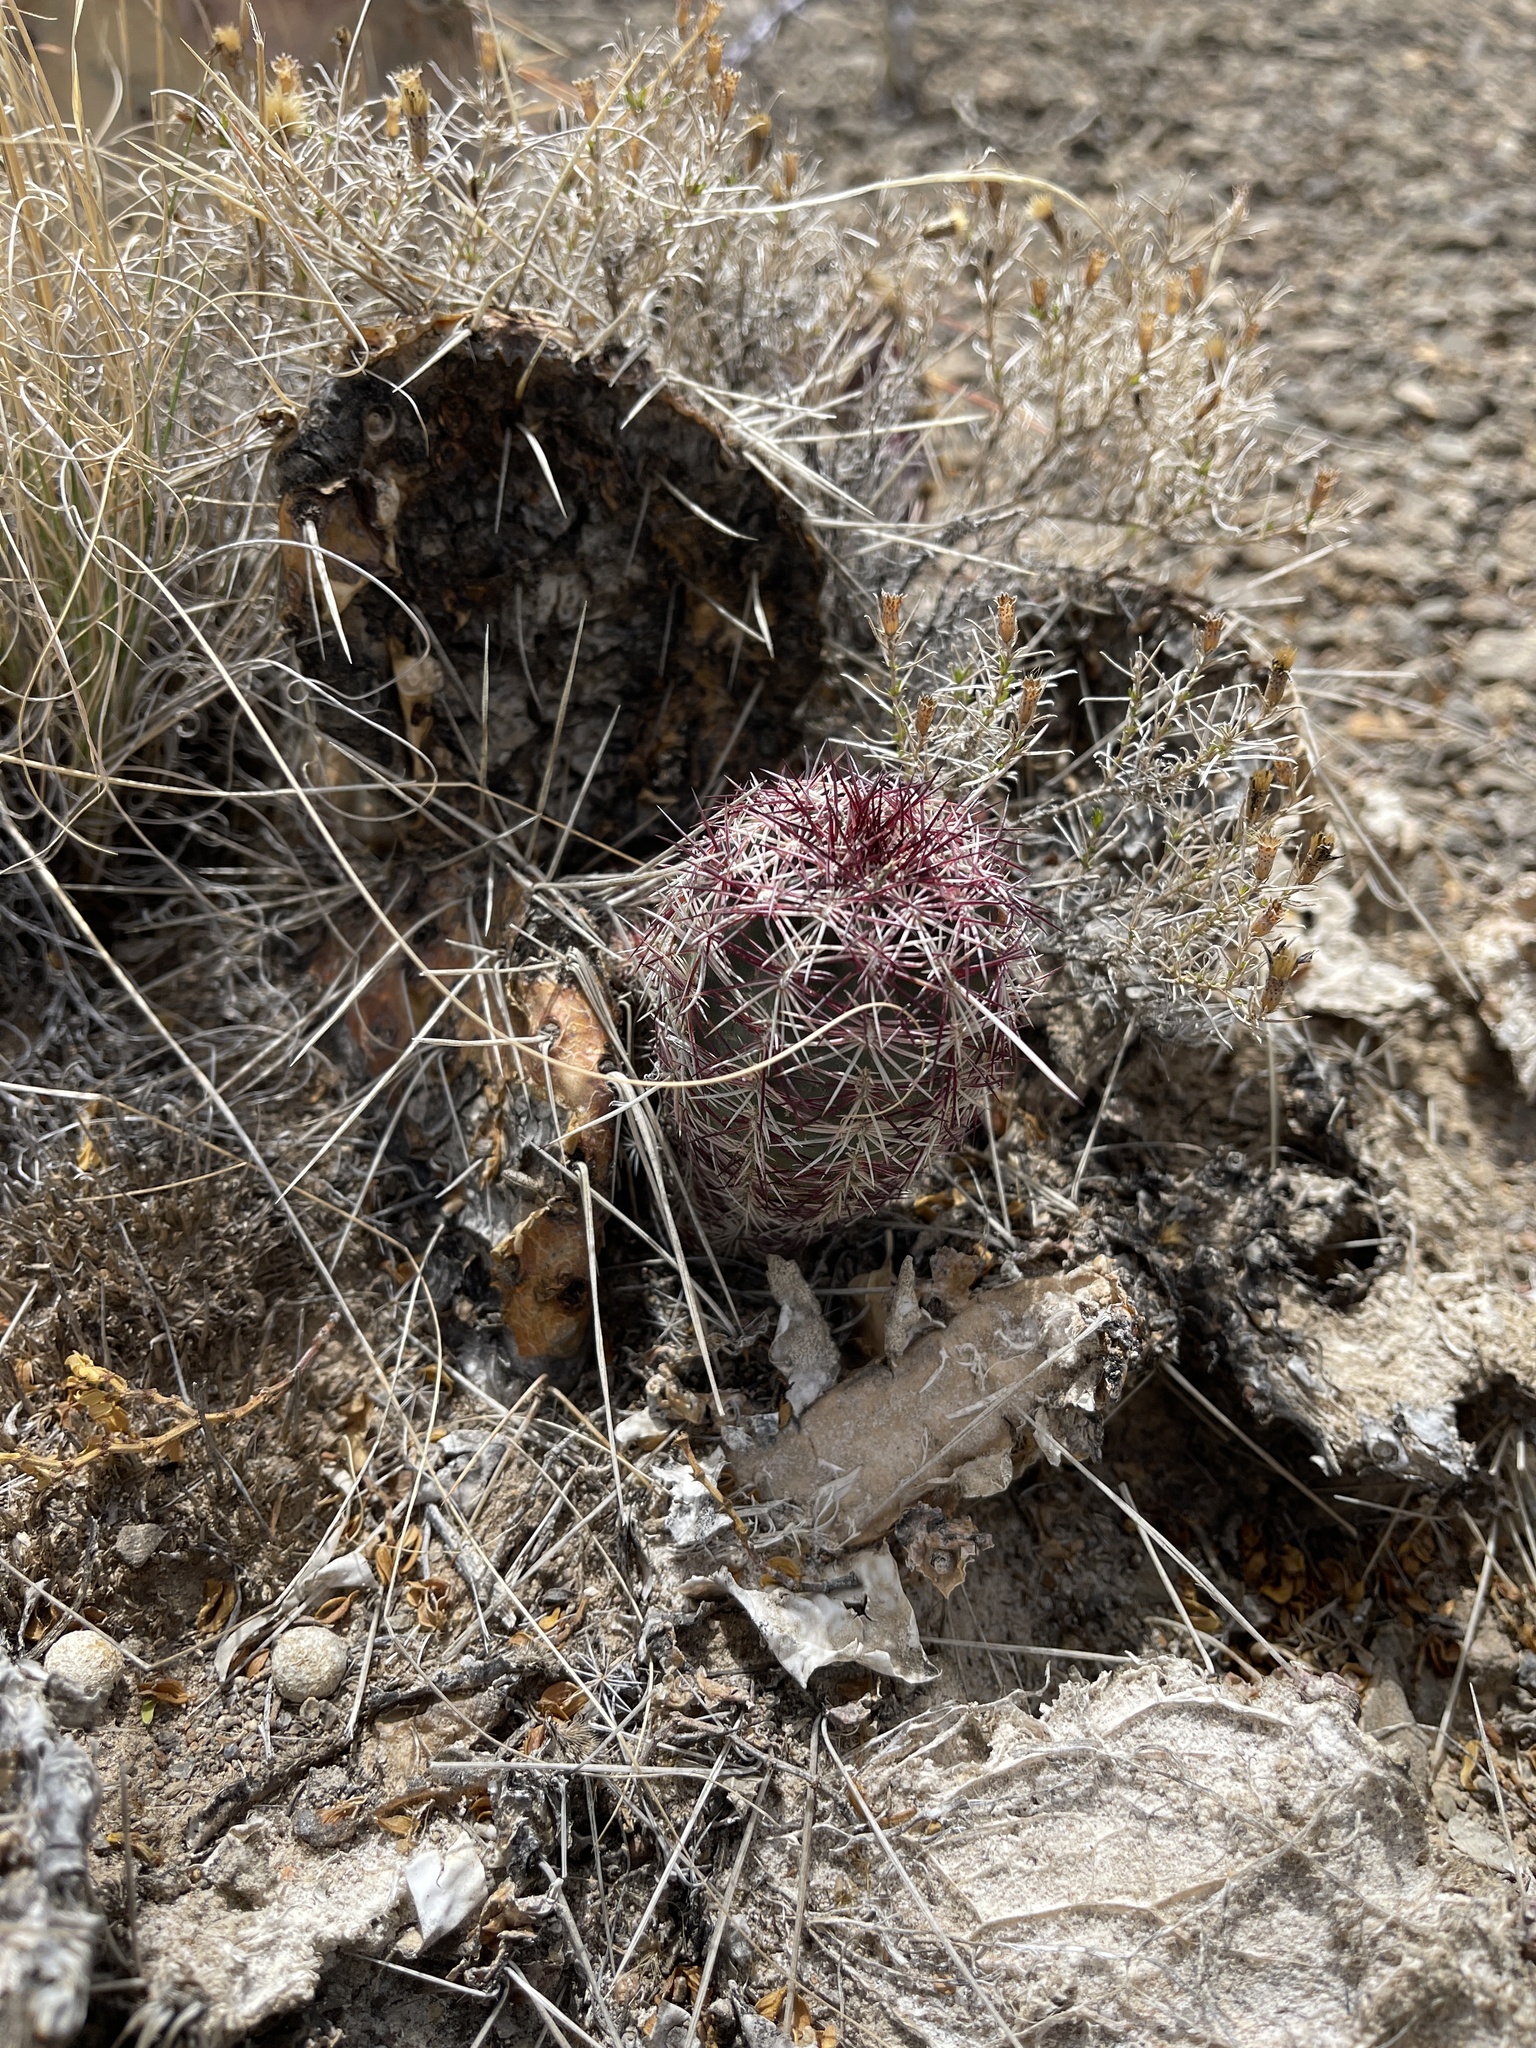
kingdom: Plantae
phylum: Tracheophyta
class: Magnoliopsida
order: Caryophyllales
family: Cactaceae
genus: Echinocereus
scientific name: Echinocereus viridiflorus
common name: Nylon hedgehog cactus
